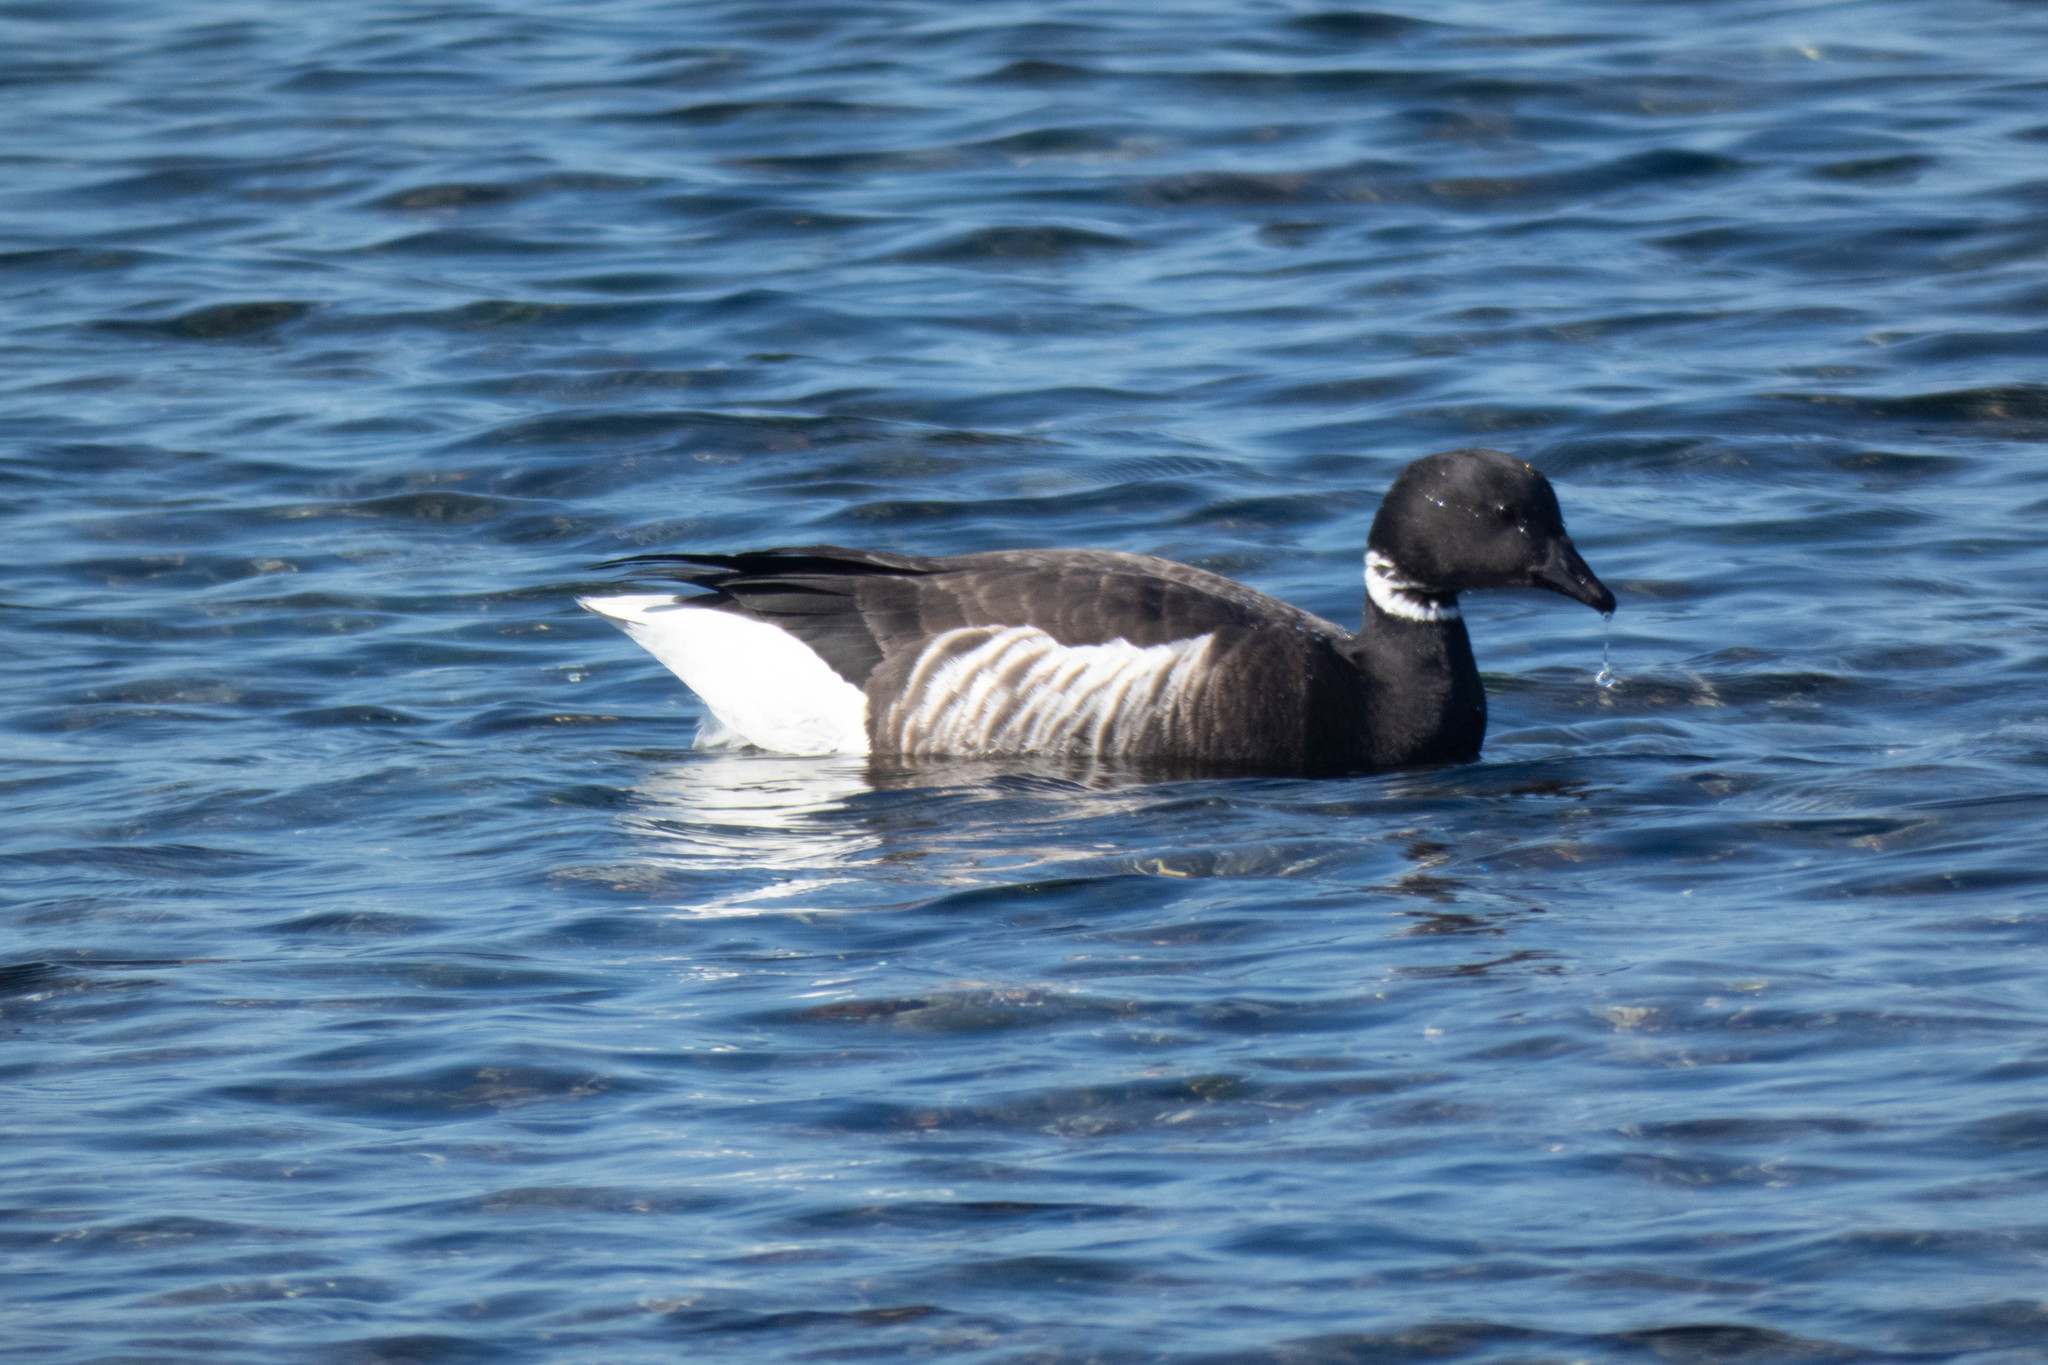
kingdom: Animalia
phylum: Chordata
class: Aves
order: Anseriformes
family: Anatidae
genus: Branta
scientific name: Branta bernicla
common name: Brant goose
